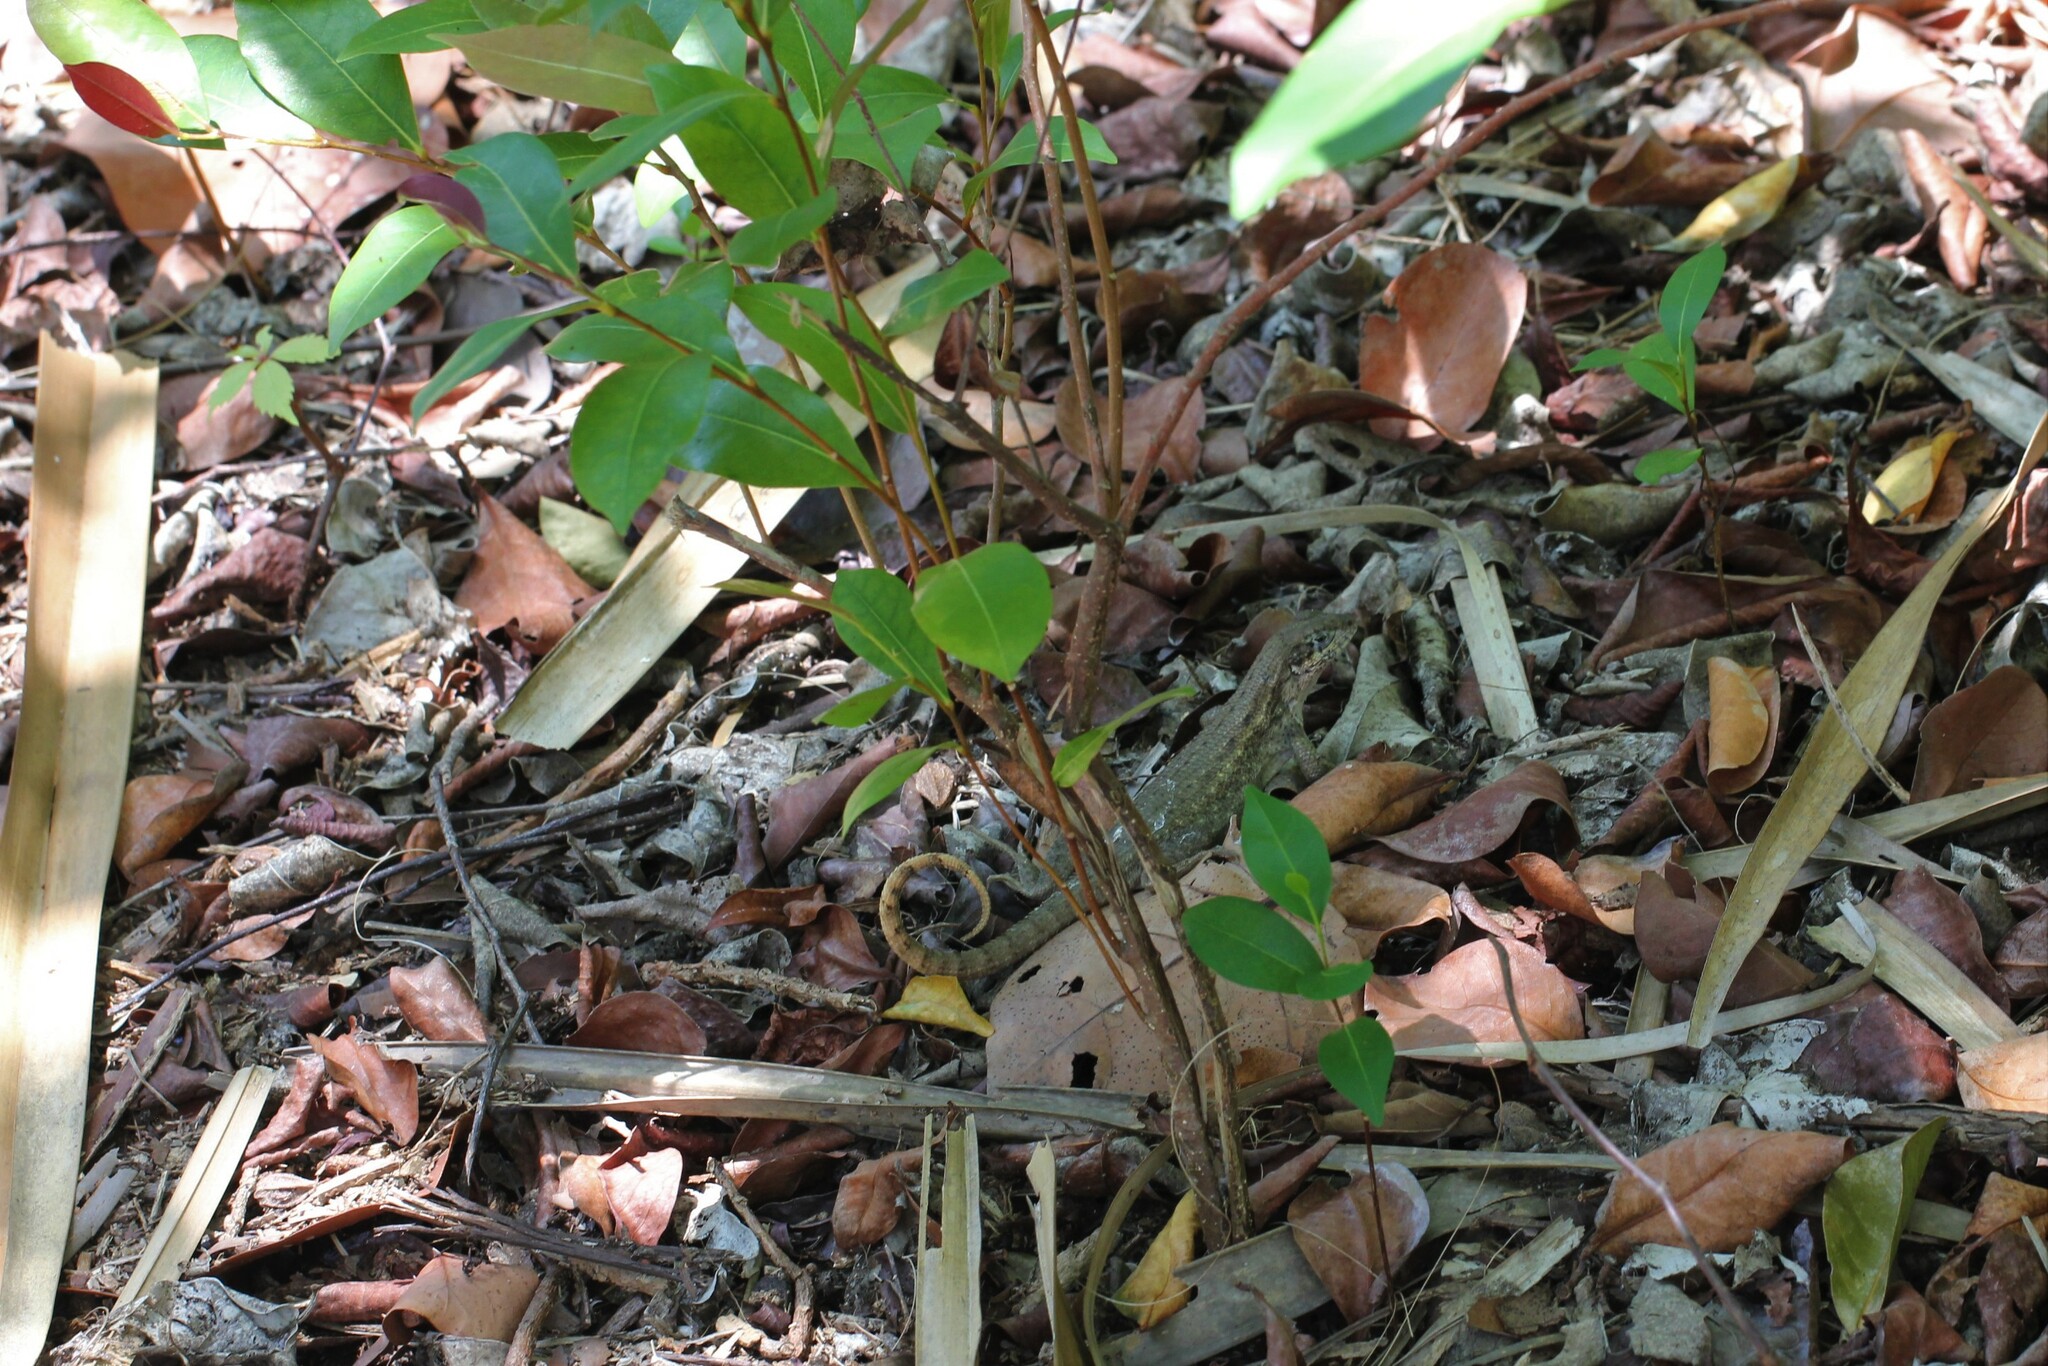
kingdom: Animalia
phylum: Chordata
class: Squamata
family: Leiocephalidae
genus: Leiocephalus
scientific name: Leiocephalus carinatus
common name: Northern curly-tailed lizard
